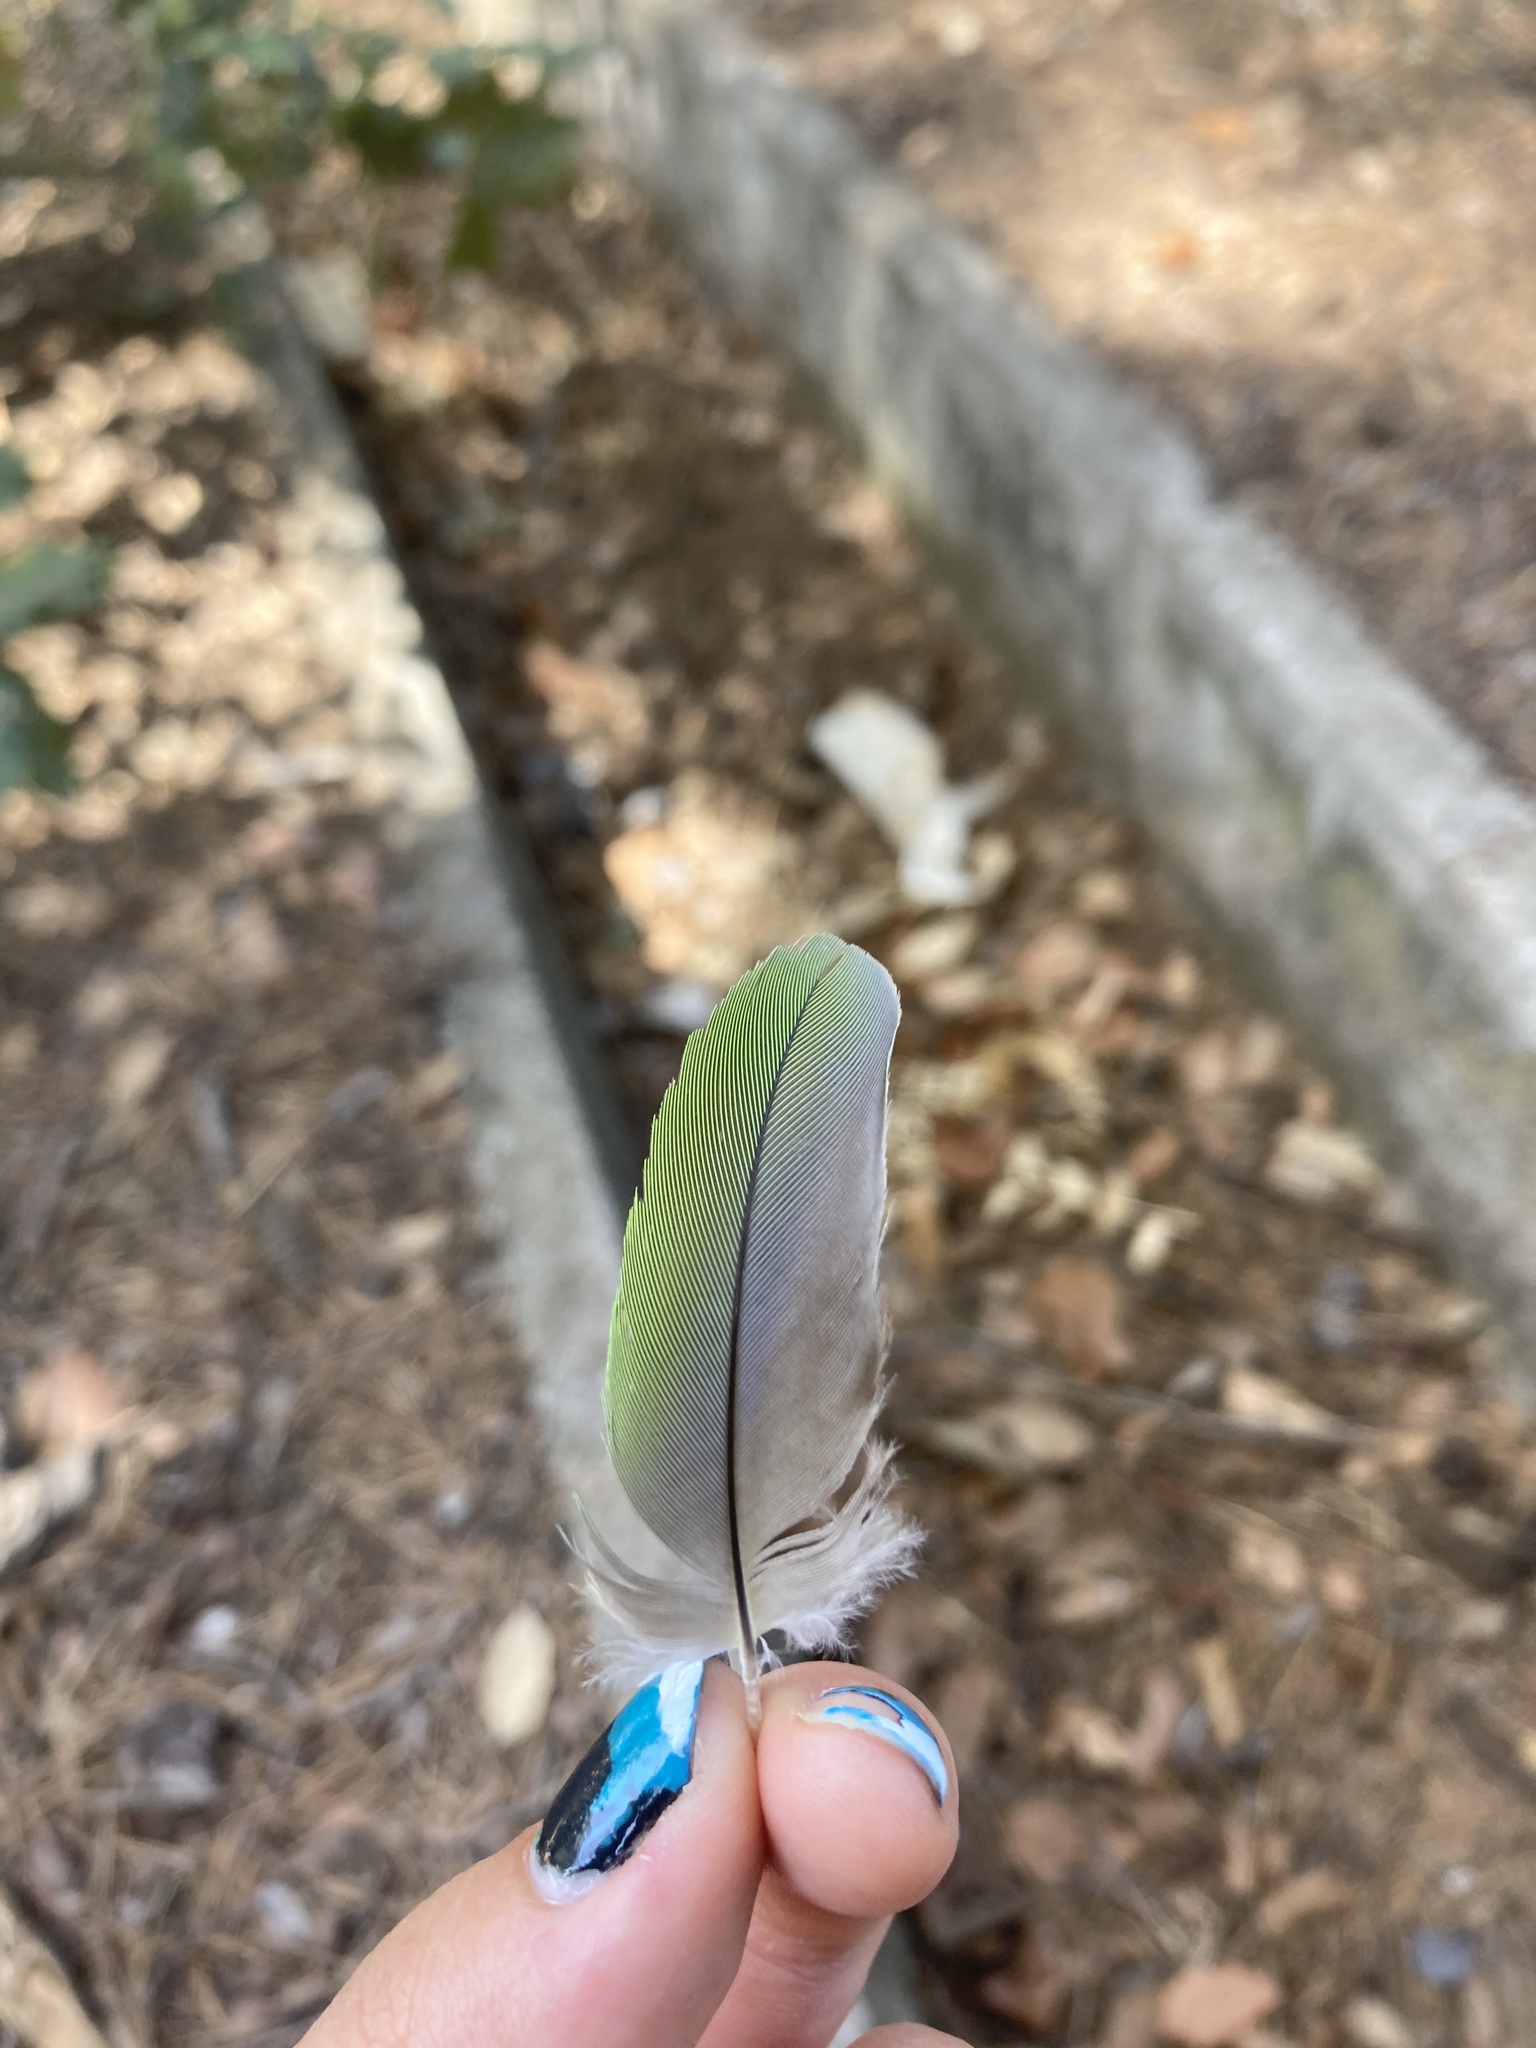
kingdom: Animalia
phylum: Chordata
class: Aves
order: Psittaciformes
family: Psittacidae
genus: Myiopsitta
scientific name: Myiopsitta monachus
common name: Monk parakeet
